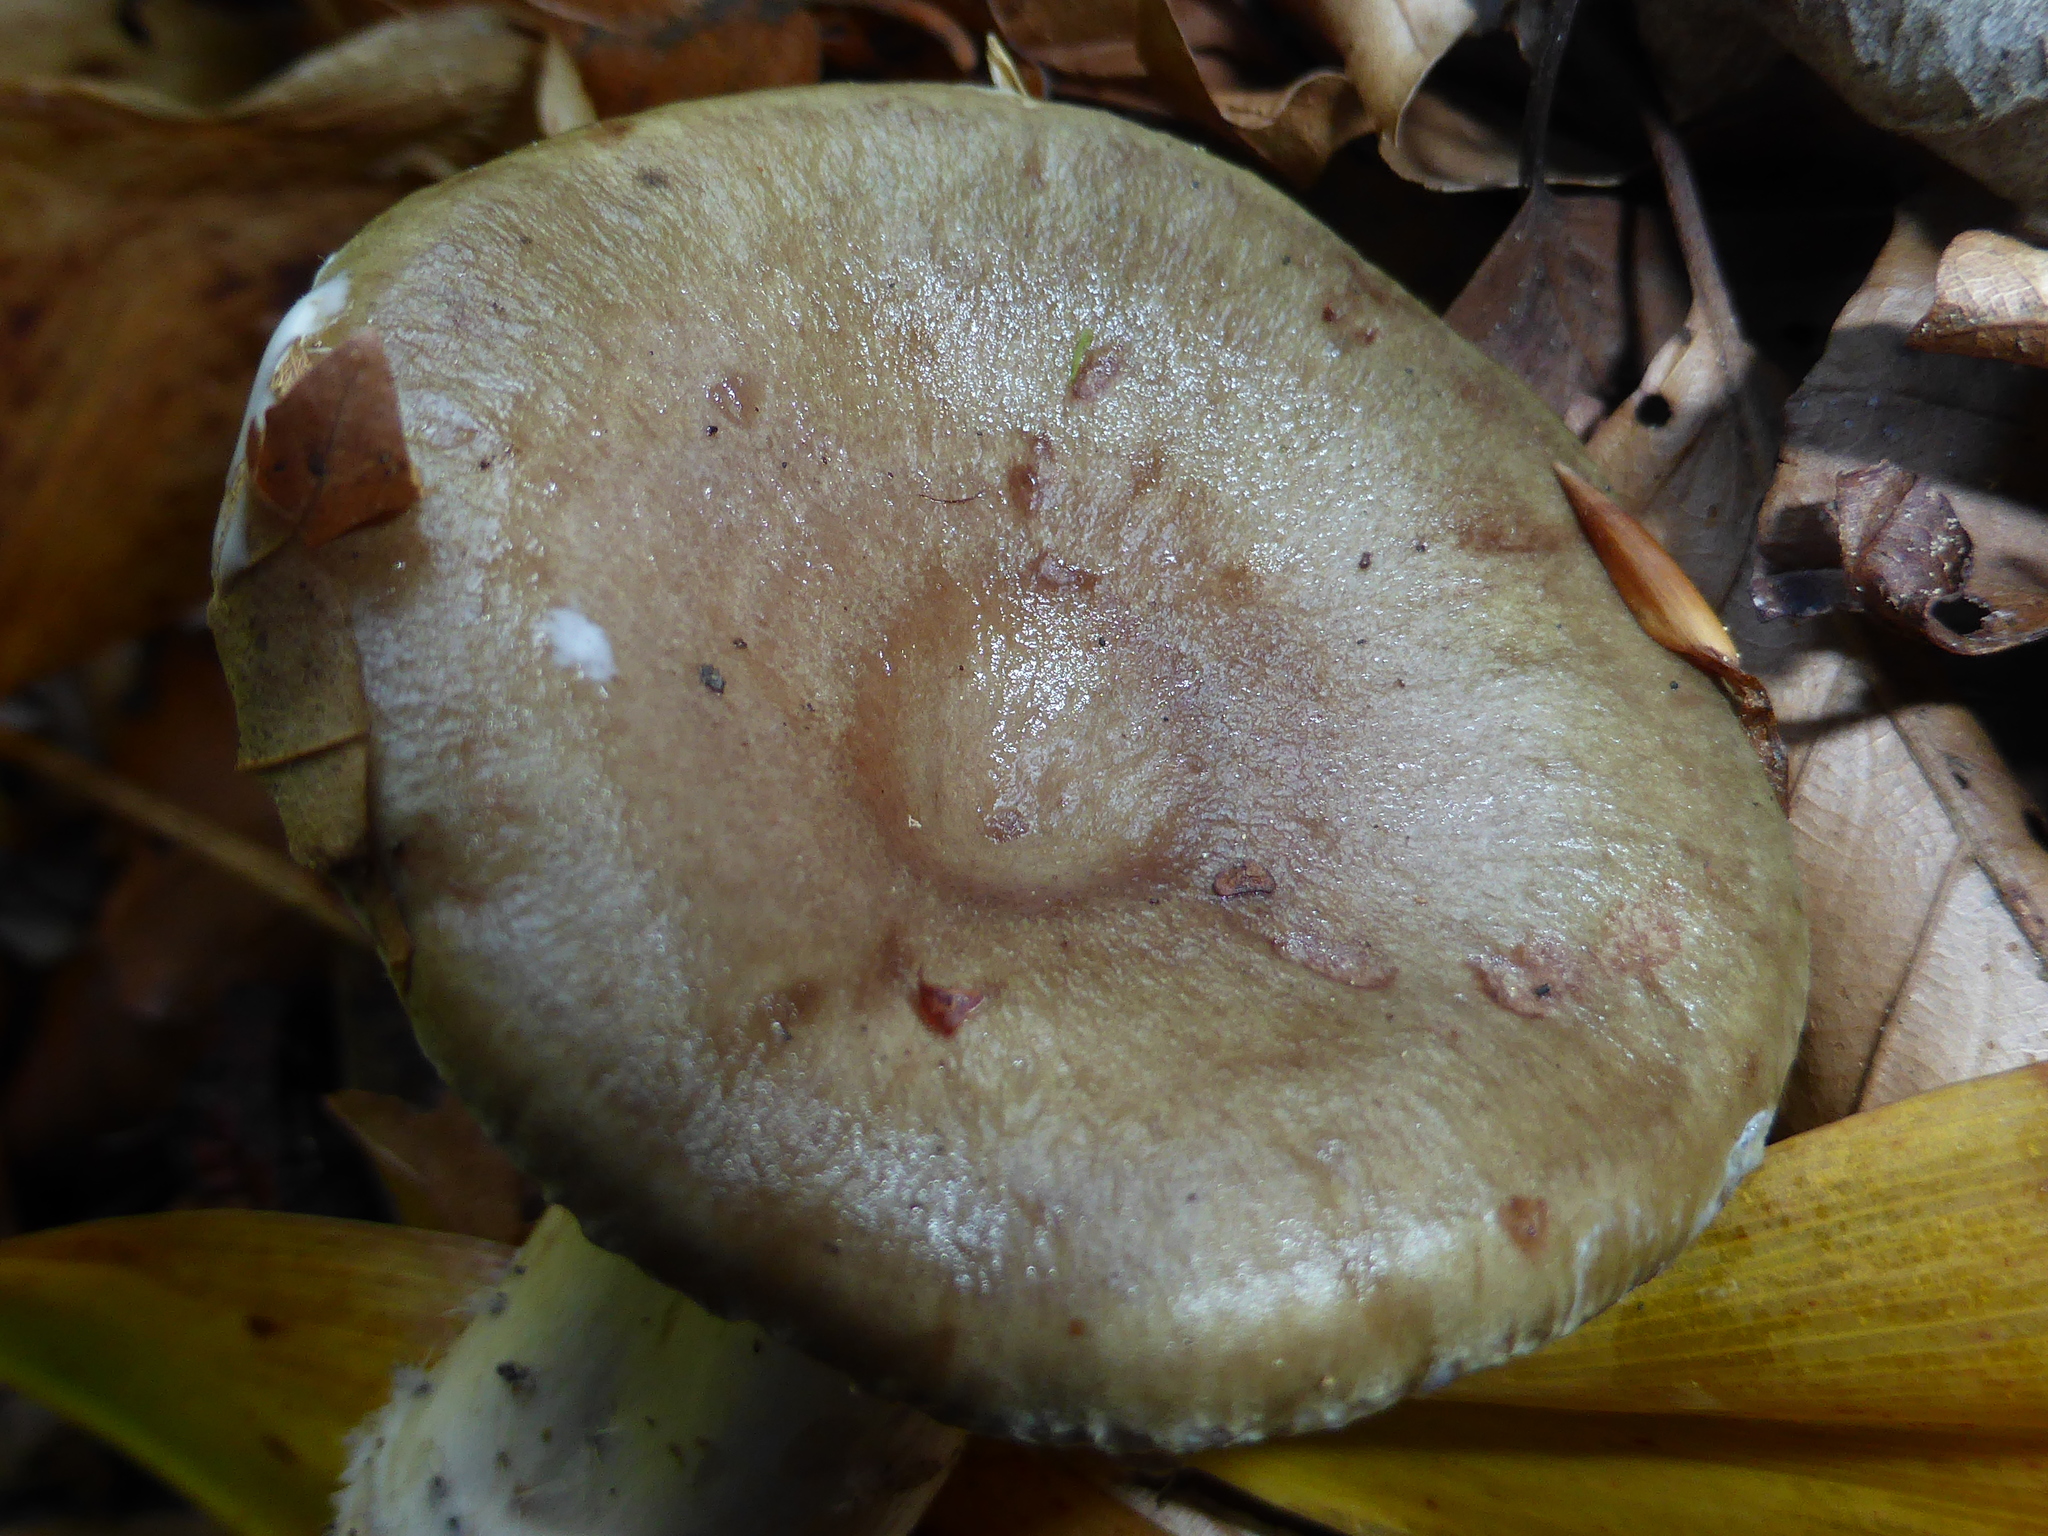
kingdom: Fungi
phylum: Basidiomycota
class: Agaricomycetes
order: Russulales
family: Russulaceae
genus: Lactarius
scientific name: Lactarius blennius
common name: Beech milkcap
